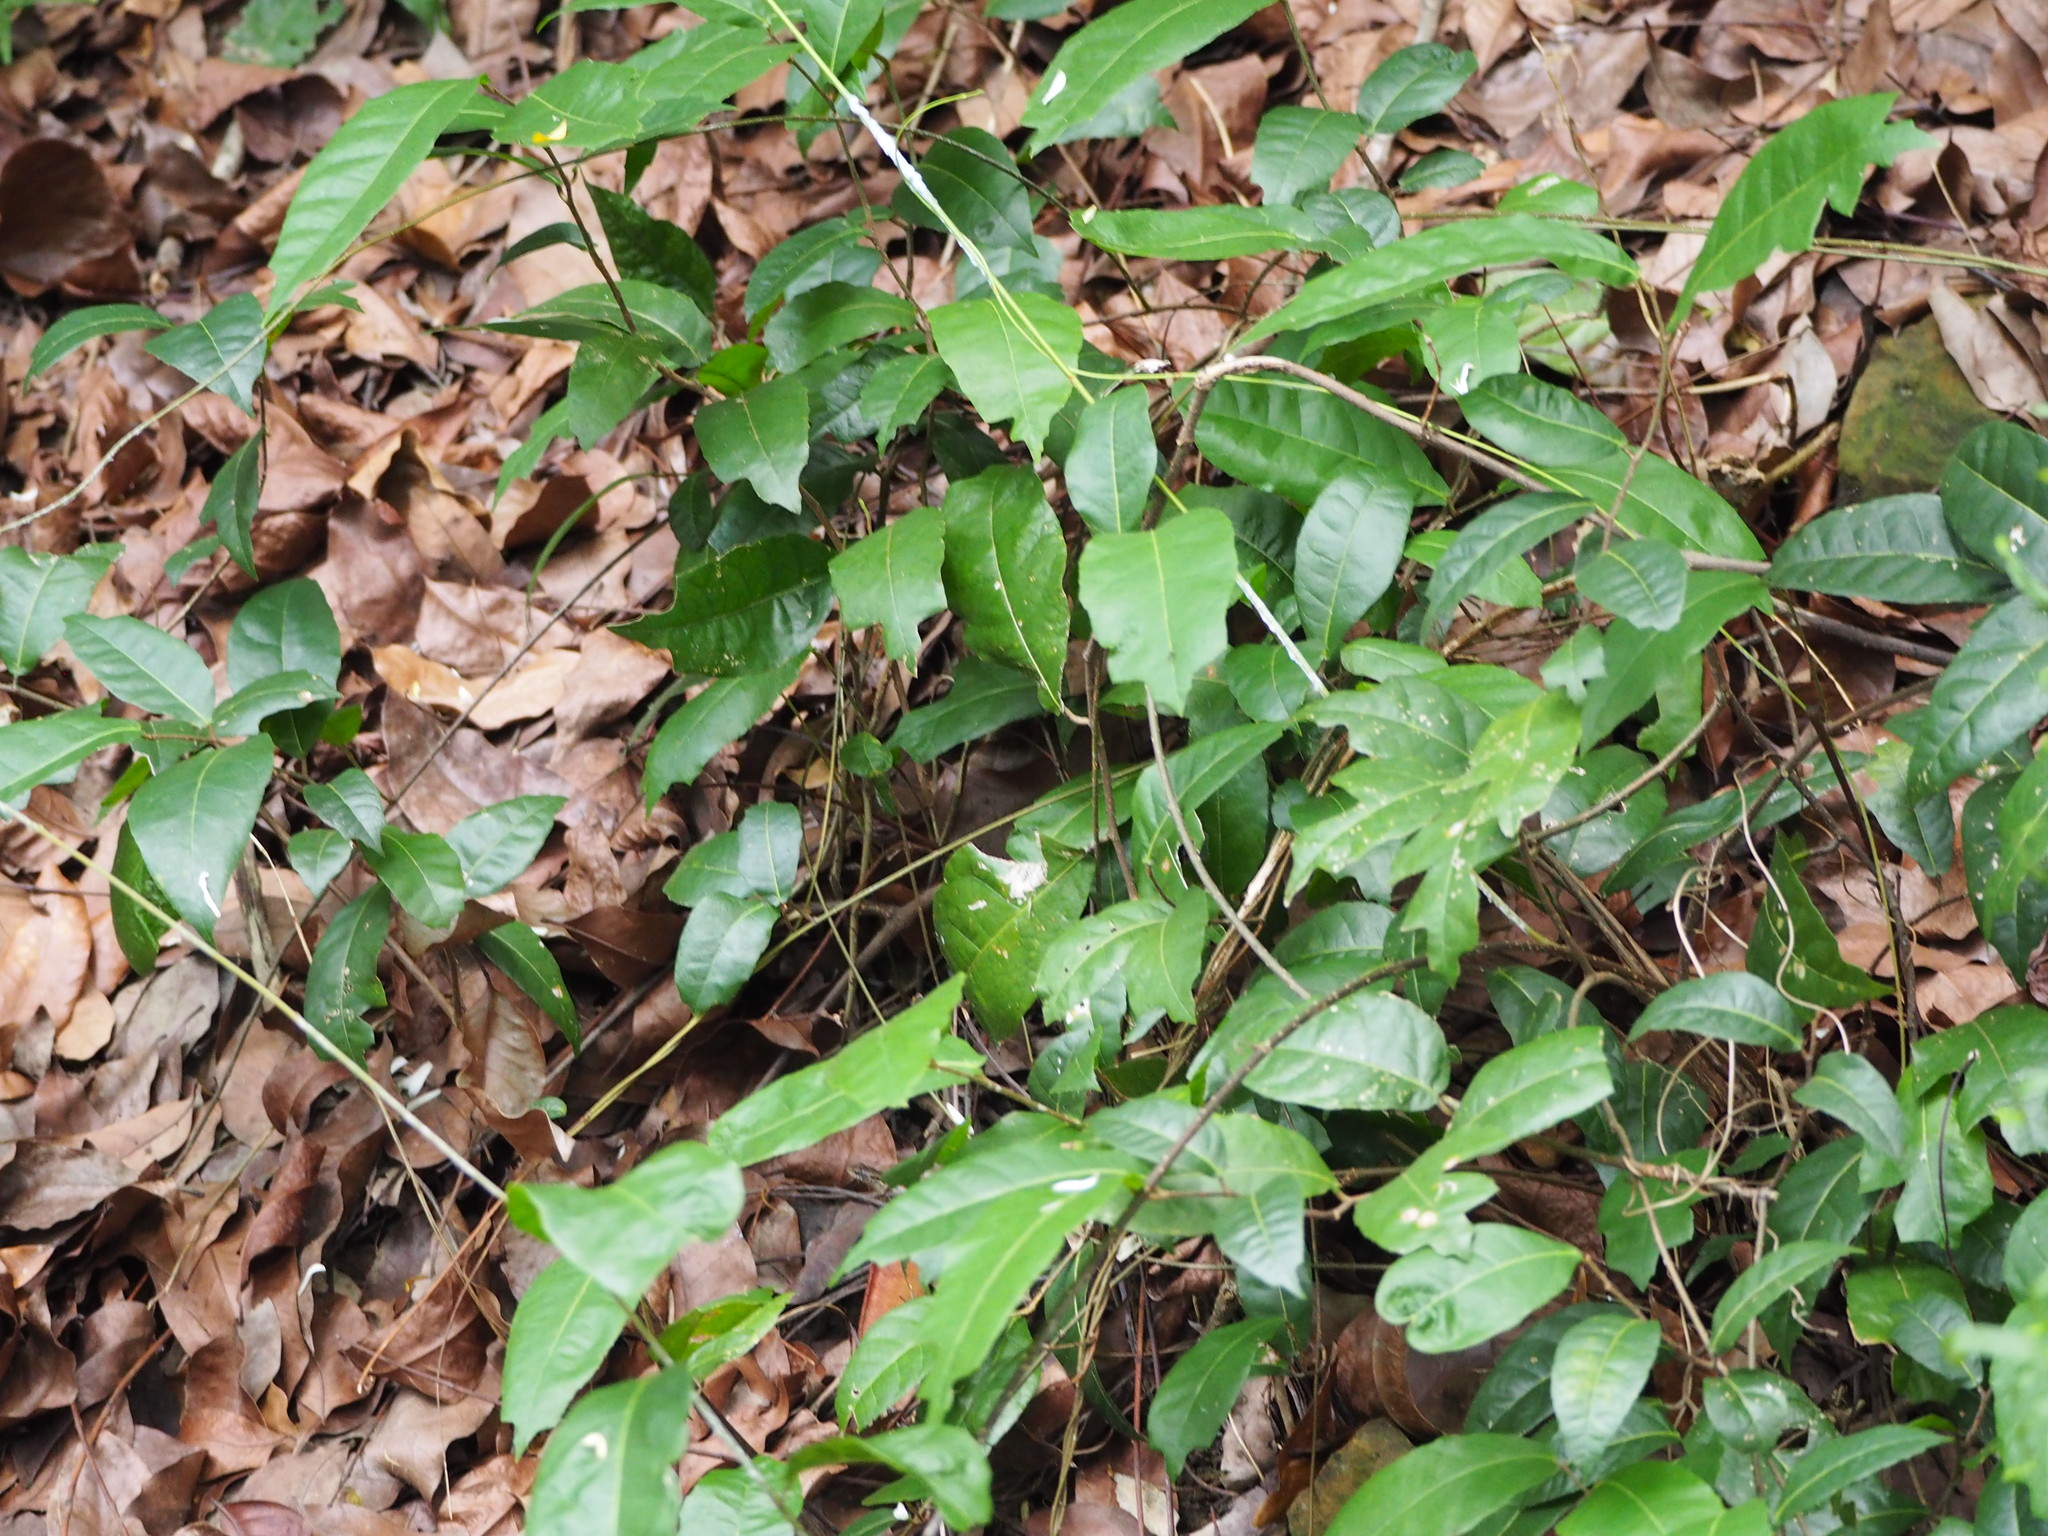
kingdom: Plantae
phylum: Tracheophyta
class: Magnoliopsida
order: Rosales
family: Moraceae
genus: Malaisia
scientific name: Malaisia scandens
